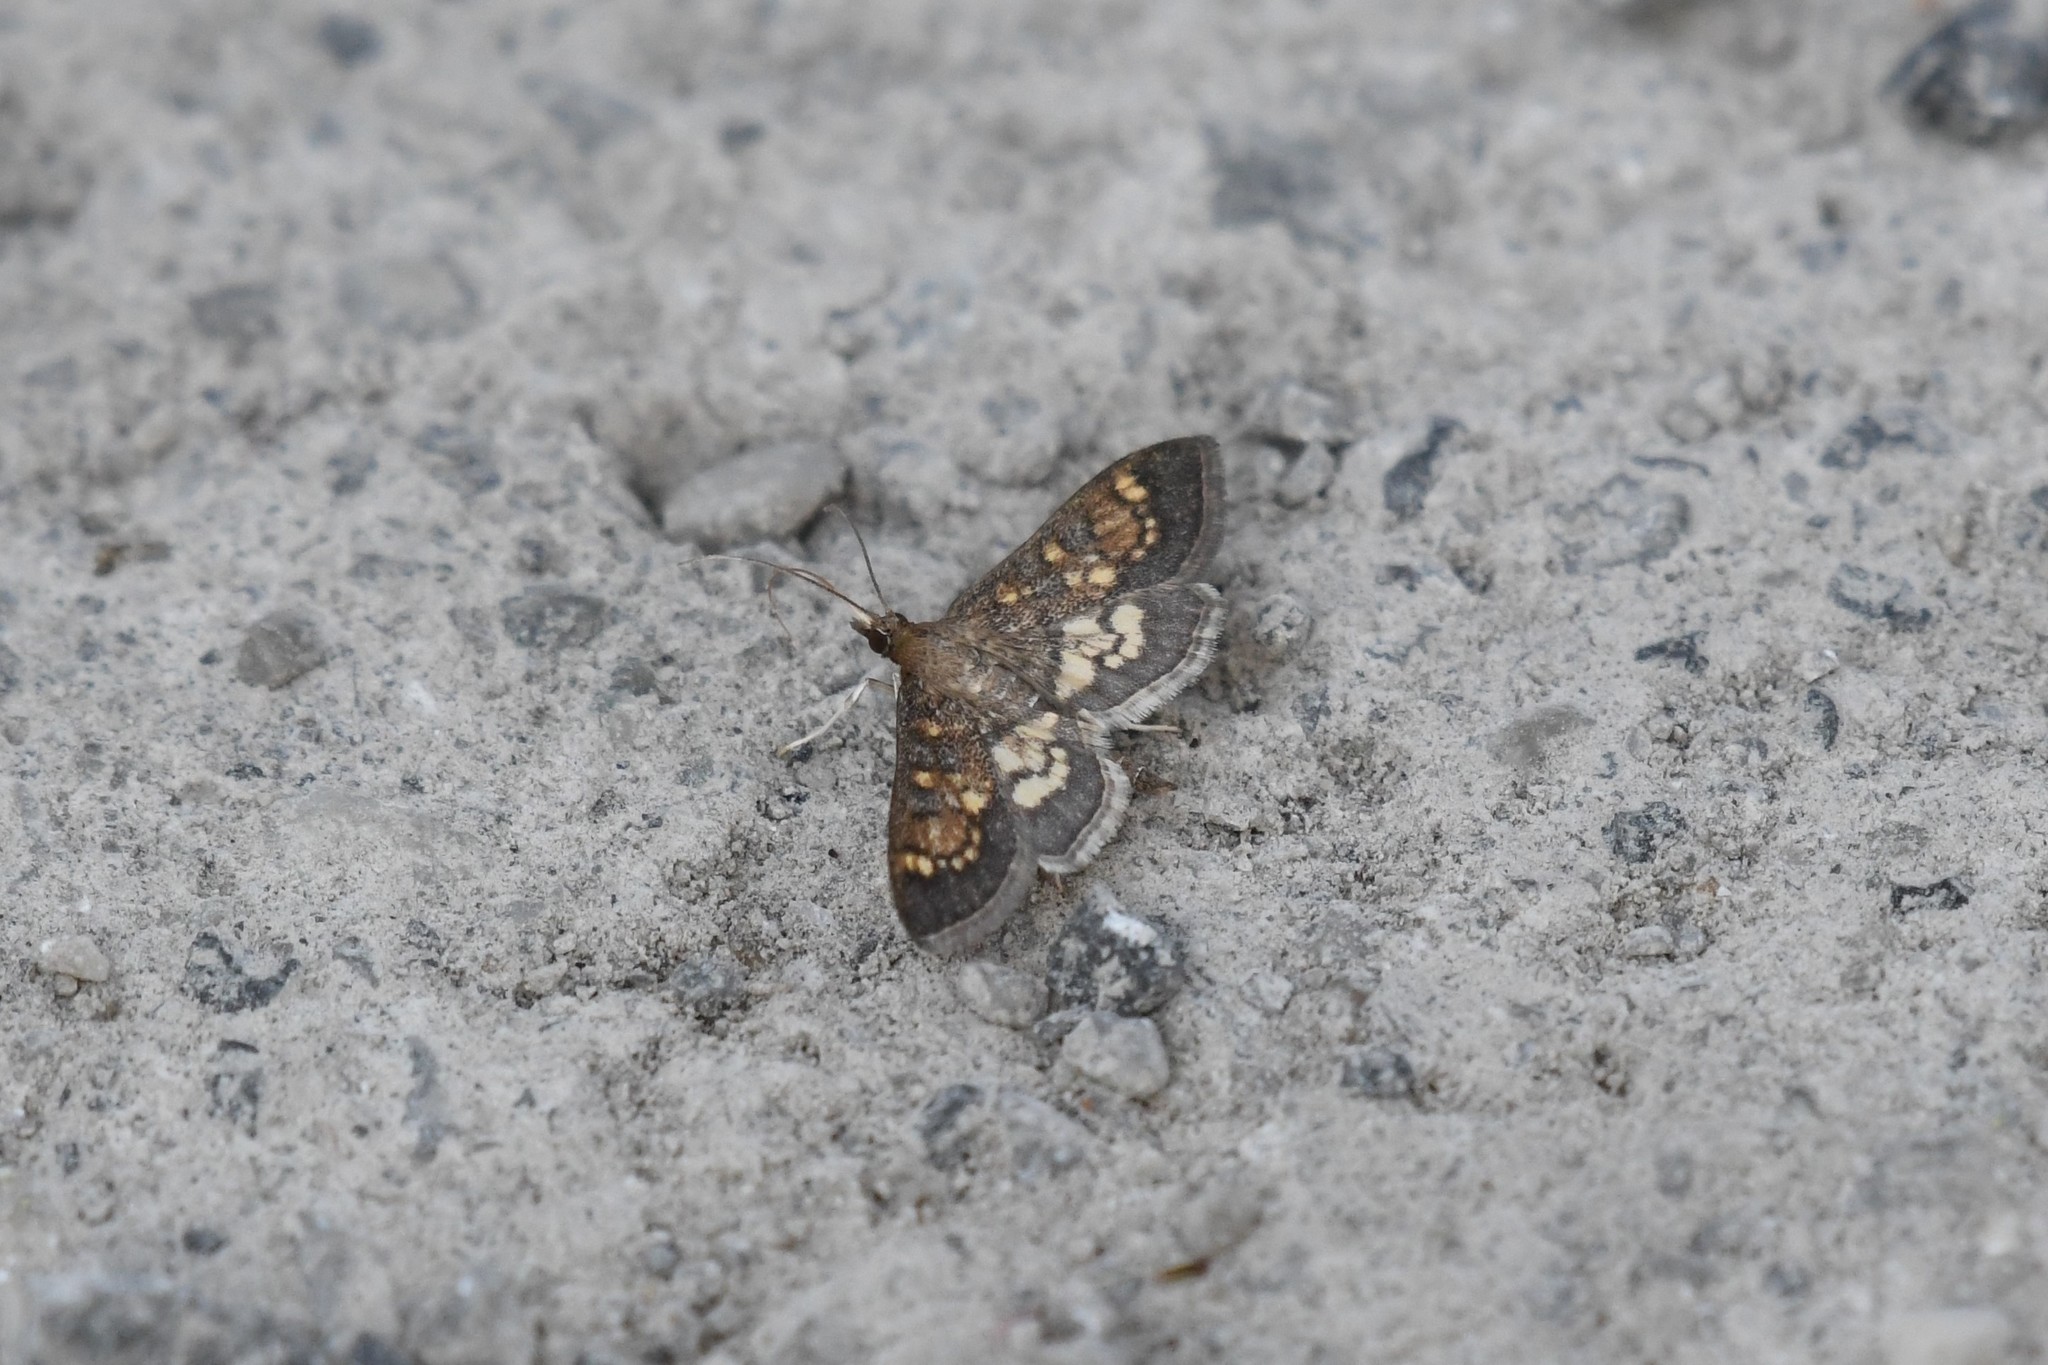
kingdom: Animalia
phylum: Arthropoda
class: Insecta
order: Lepidoptera
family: Crambidae
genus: Epipagis
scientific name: Epipagis adipaloides
